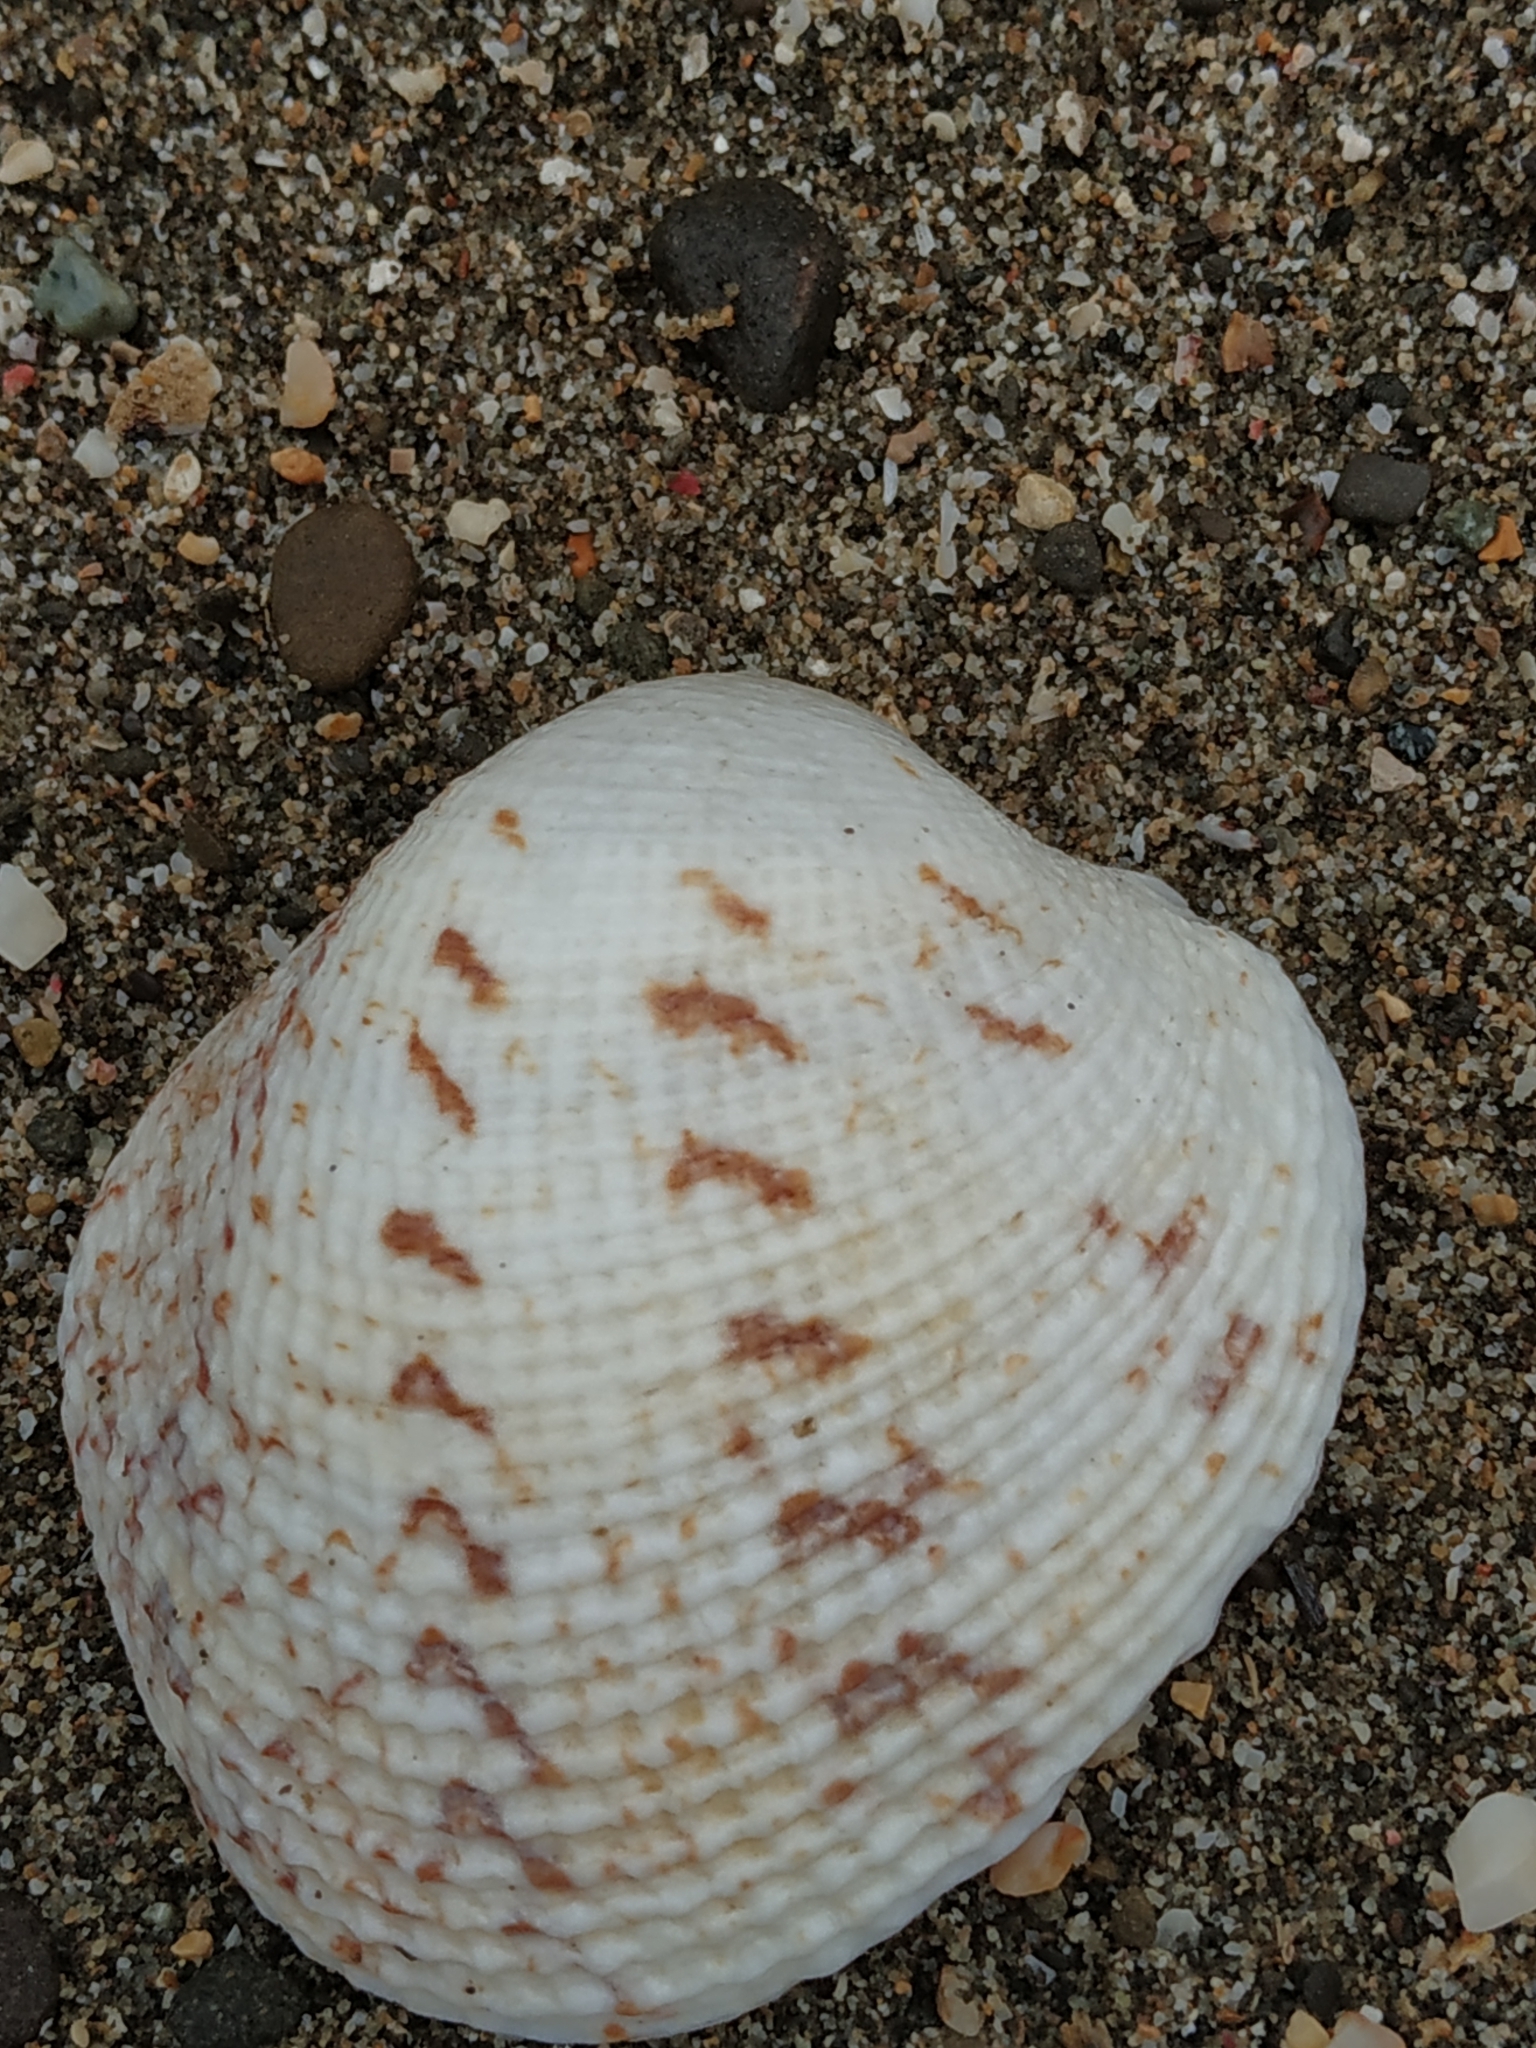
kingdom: Animalia
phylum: Mollusca
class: Bivalvia
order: Venerida
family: Veneridae
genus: Periglypta
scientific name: Periglypta reticulata
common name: Reticulated venus
